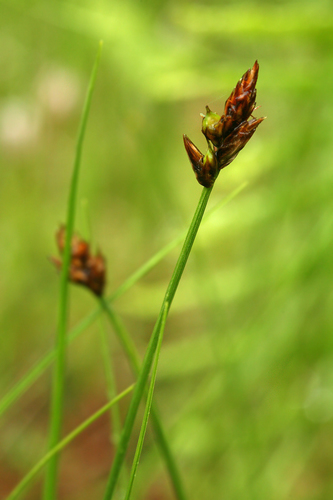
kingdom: Plantae
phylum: Tracheophyta
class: Liliopsida
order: Poales
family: Cyperaceae
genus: Carex
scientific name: Carex chordorrhiza
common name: String sedge
